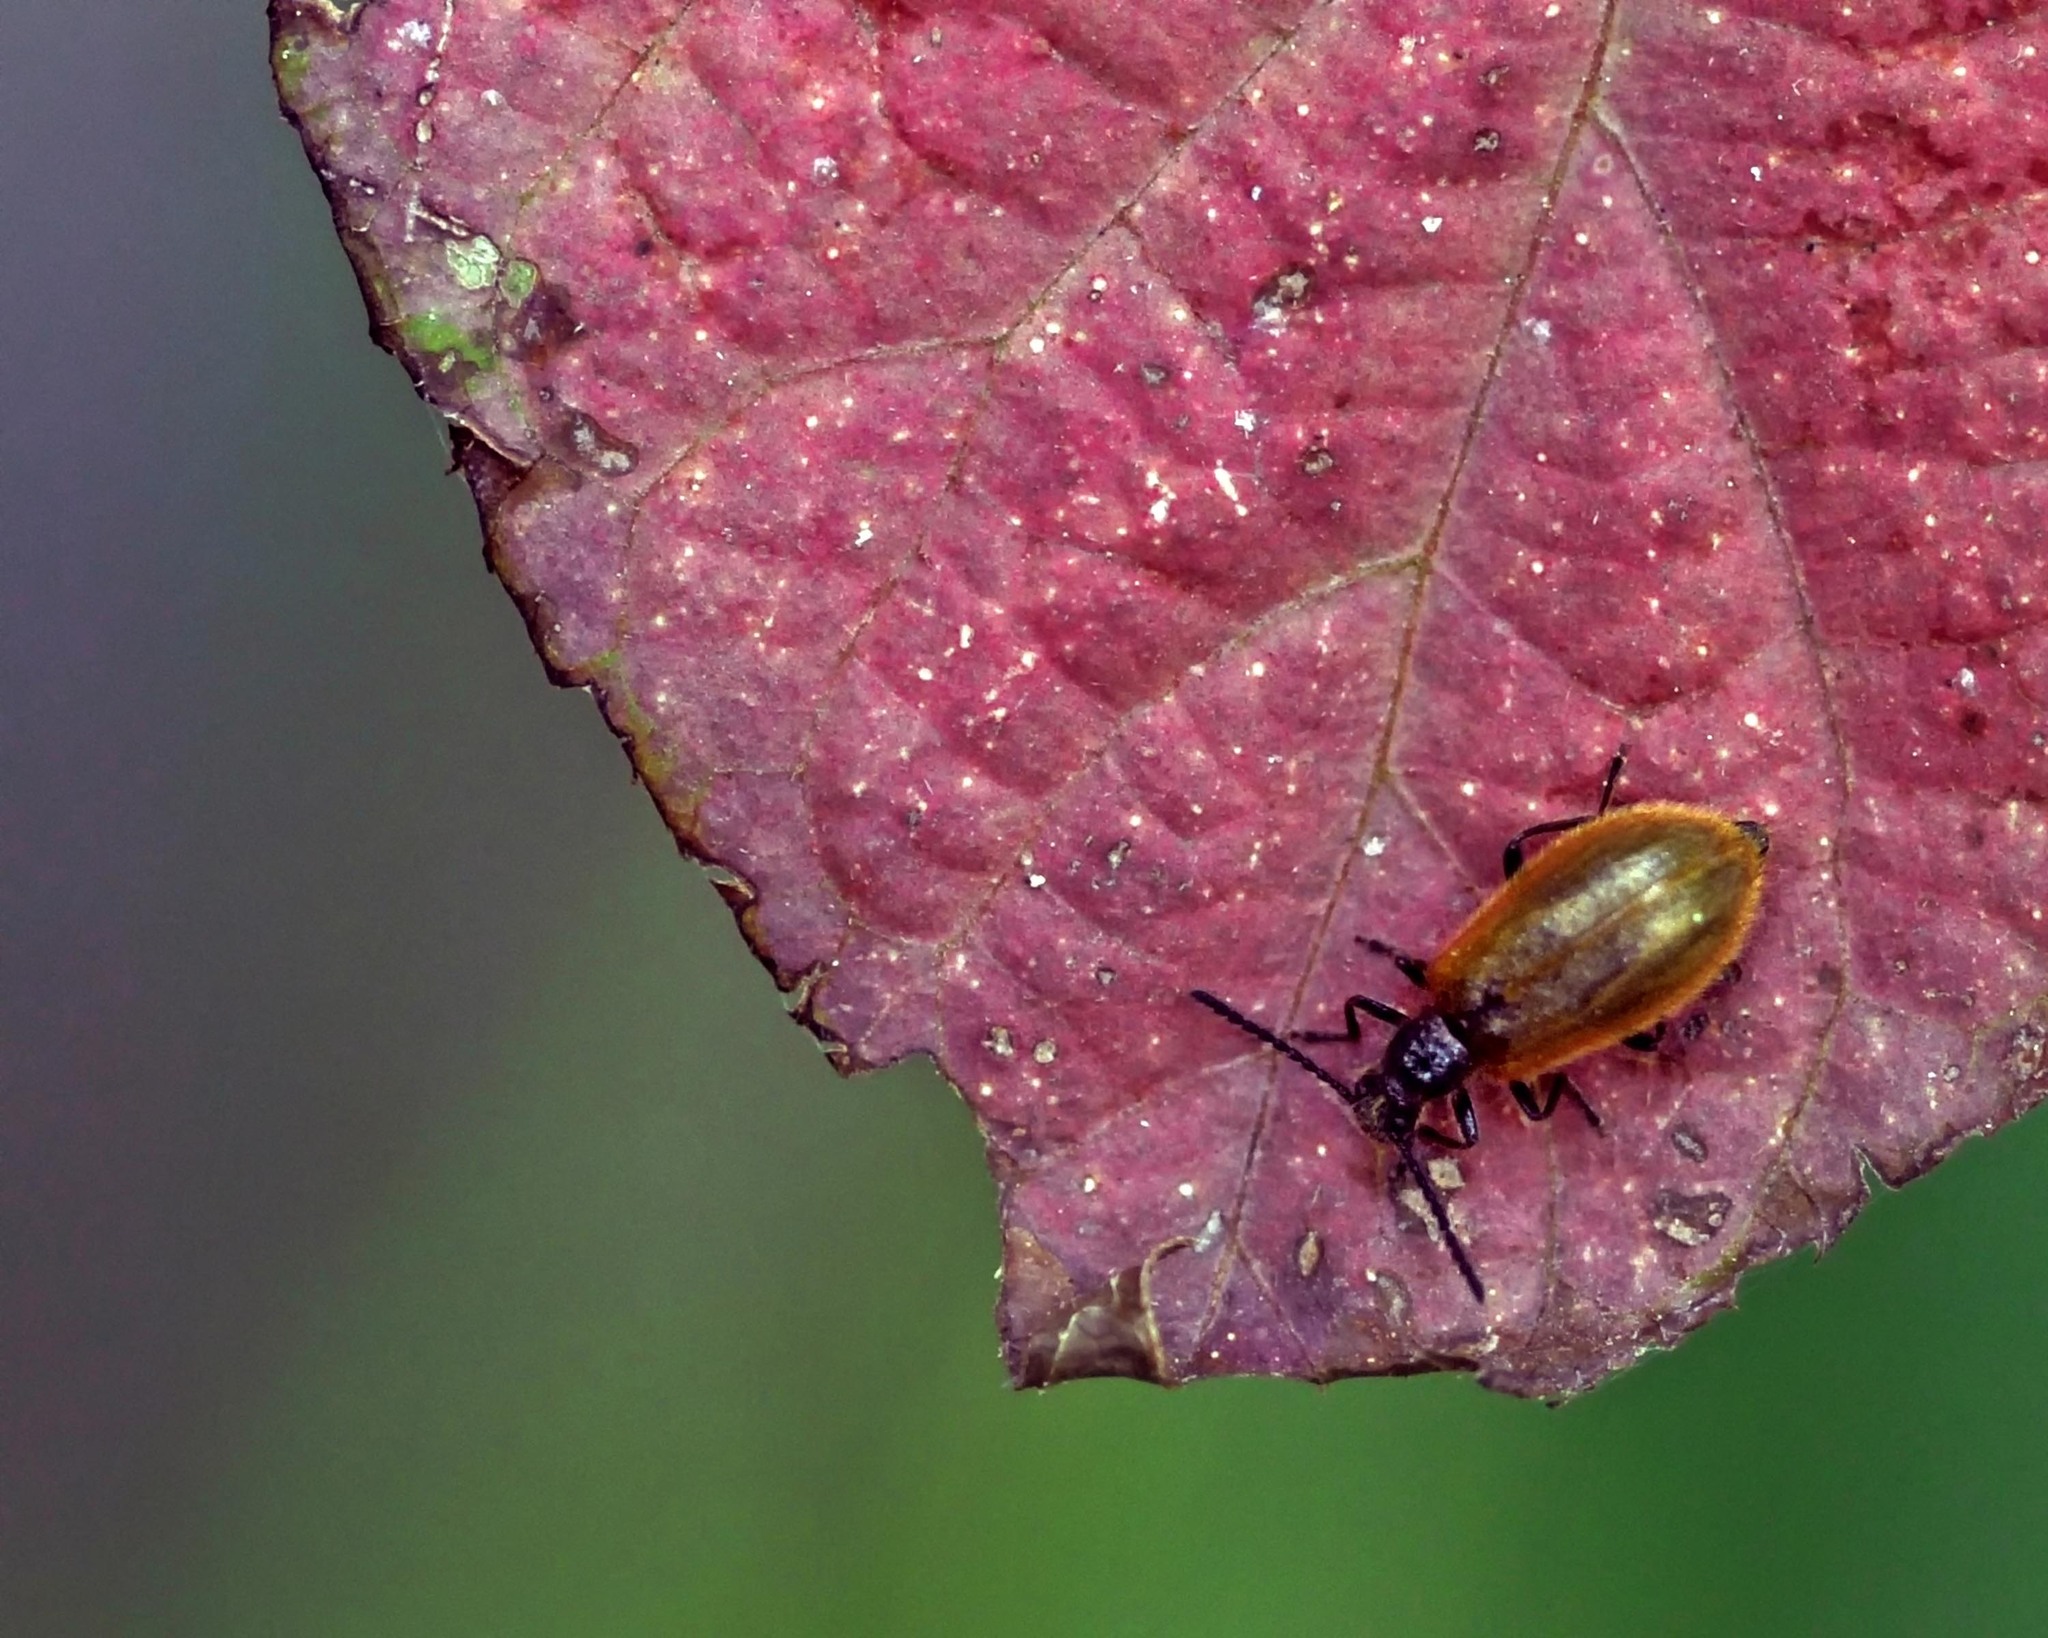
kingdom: Animalia
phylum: Arthropoda
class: Insecta
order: Coleoptera
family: Tenebrionidae
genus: Lagria
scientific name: Lagria hirta
